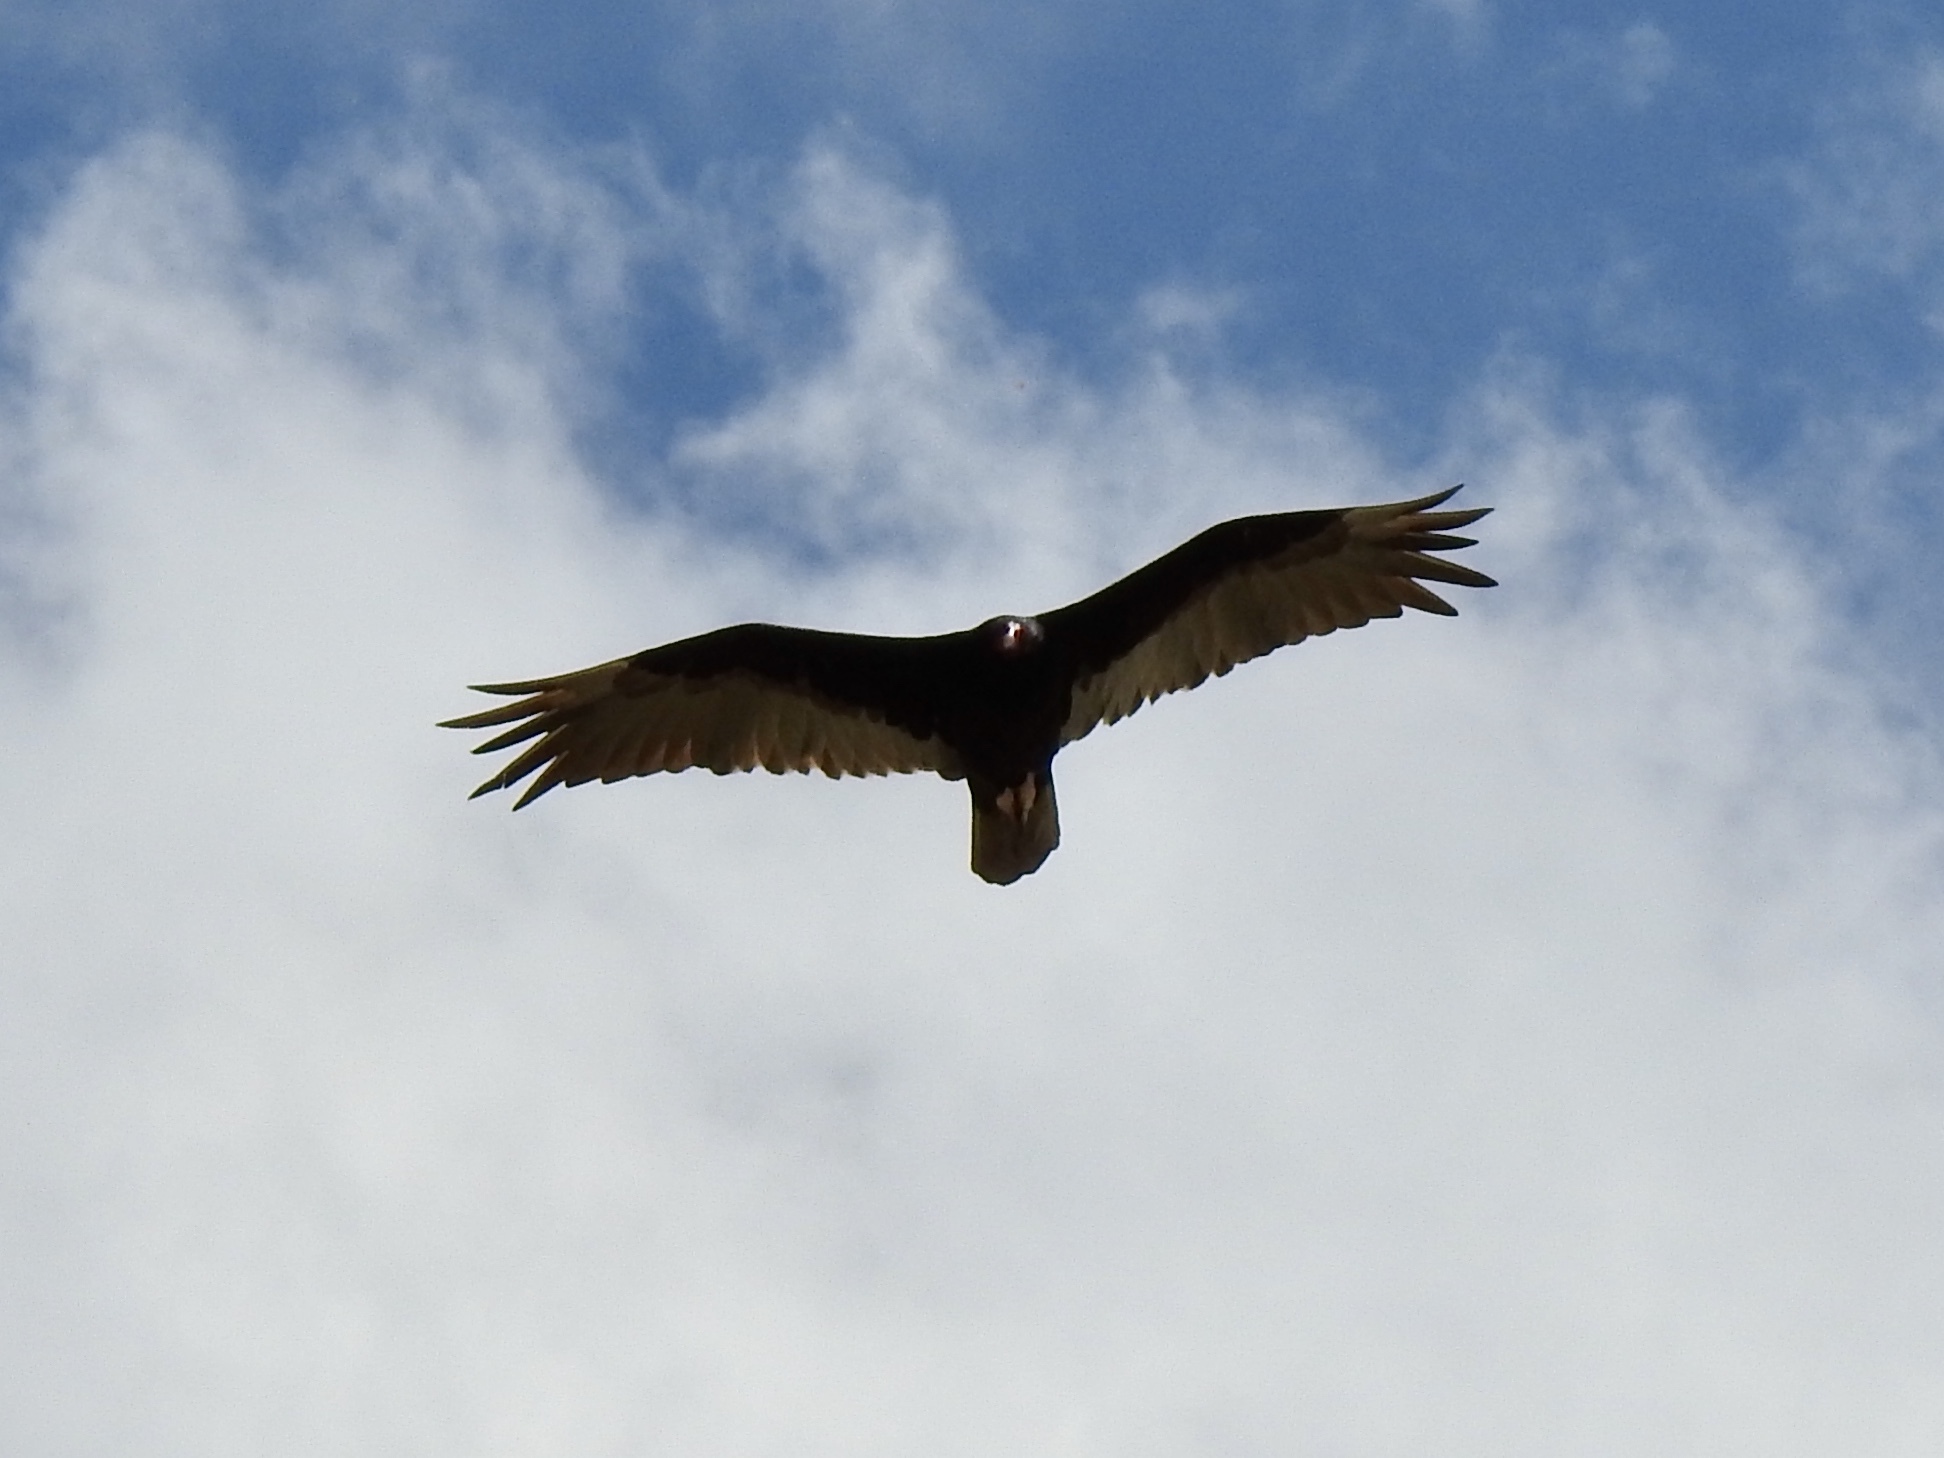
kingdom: Animalia
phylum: Chordata
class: Aves
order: Accipitriformes
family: Cathartidae
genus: Cathartes
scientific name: Cathartes aura
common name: Turkey vulture
